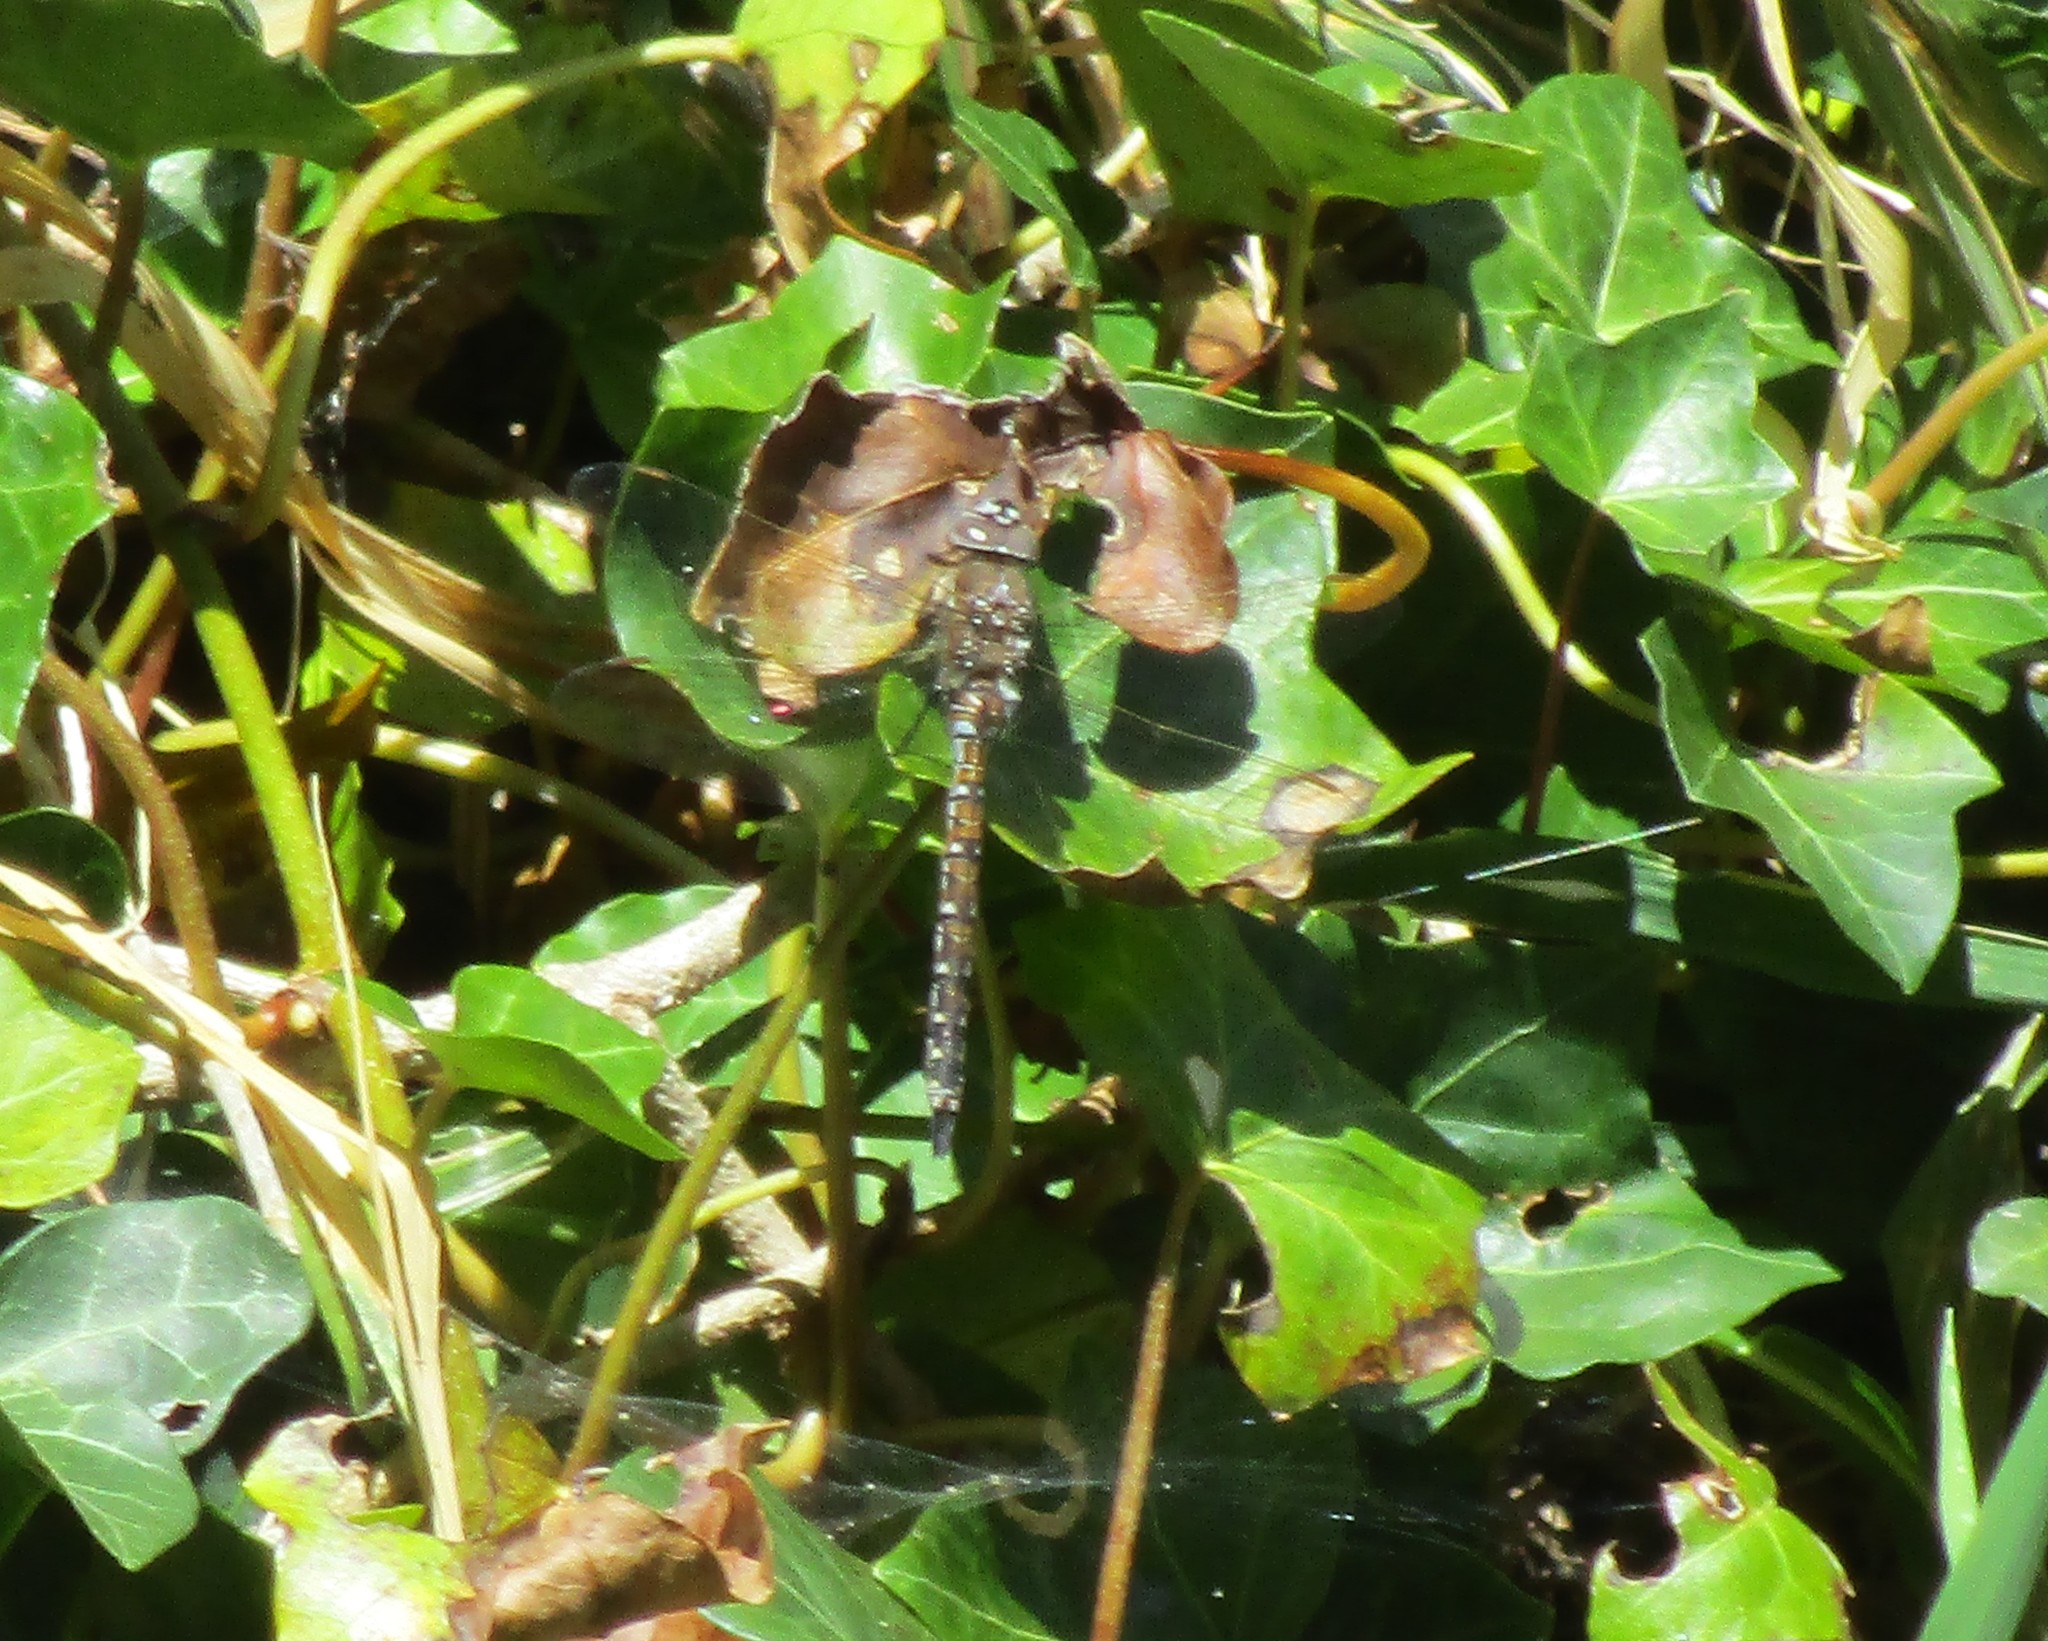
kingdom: Animalia
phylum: Arthropoda
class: Insecta
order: Odonata
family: Aeshnidae
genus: Rhionaeschna
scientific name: Rhionaeschna californica
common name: California darner
